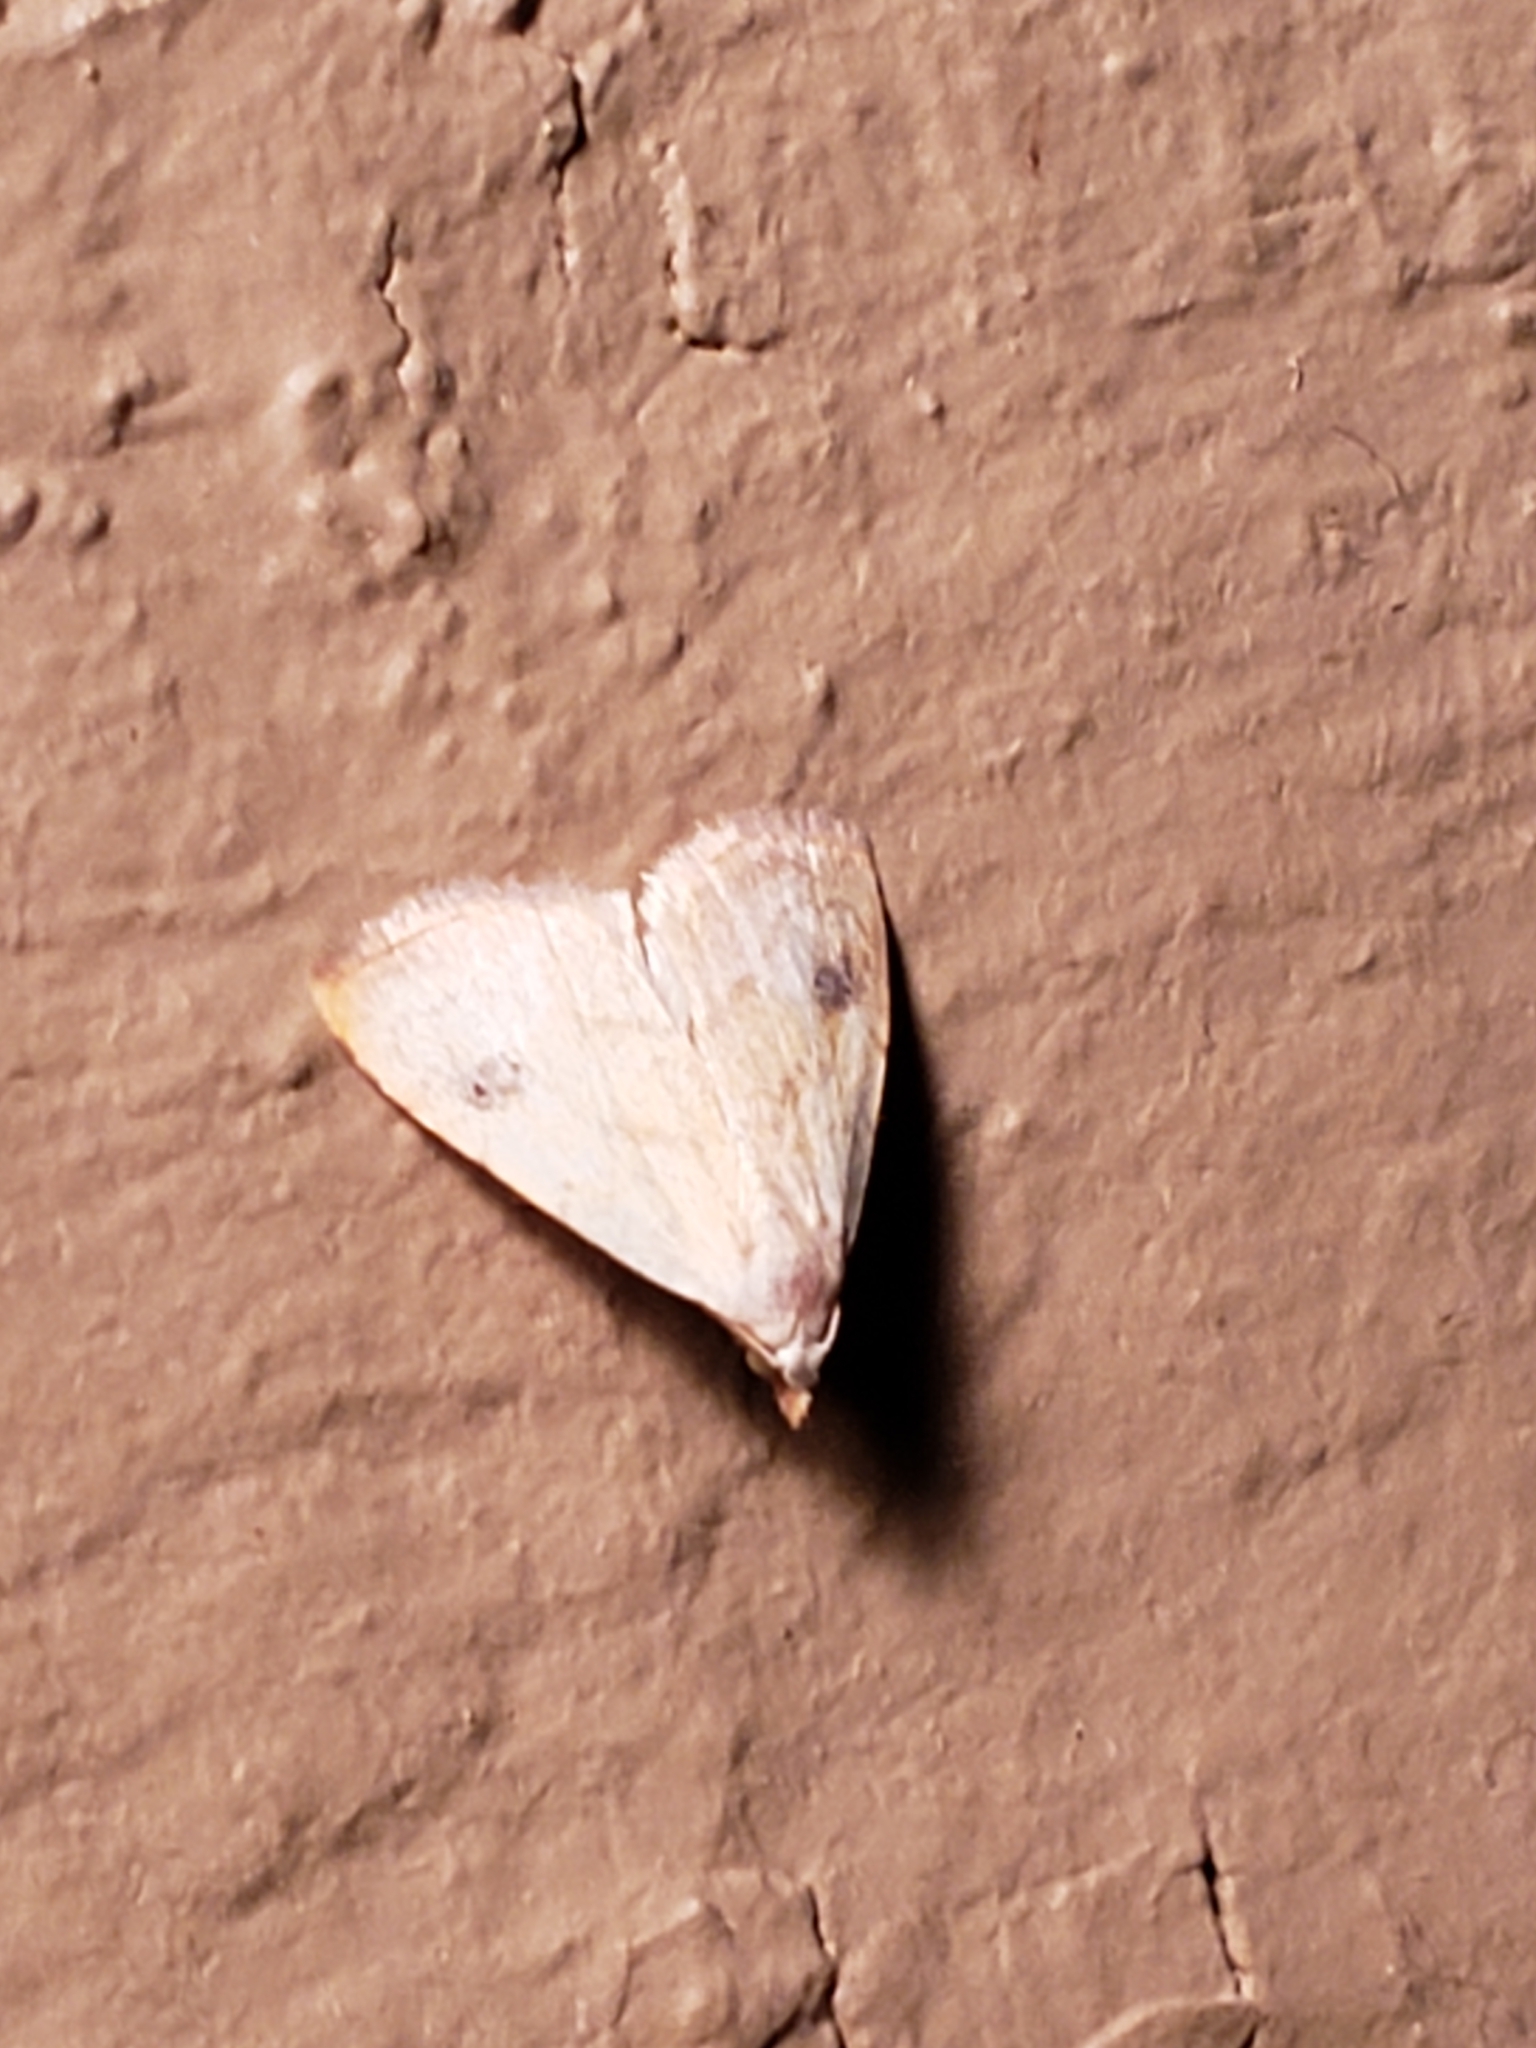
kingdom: Animalia
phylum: Arthropoda
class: Insecta
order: Lepidoptera
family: Erebidae
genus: Rivula
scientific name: Rivula propinqualis
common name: Spotted grass moth
